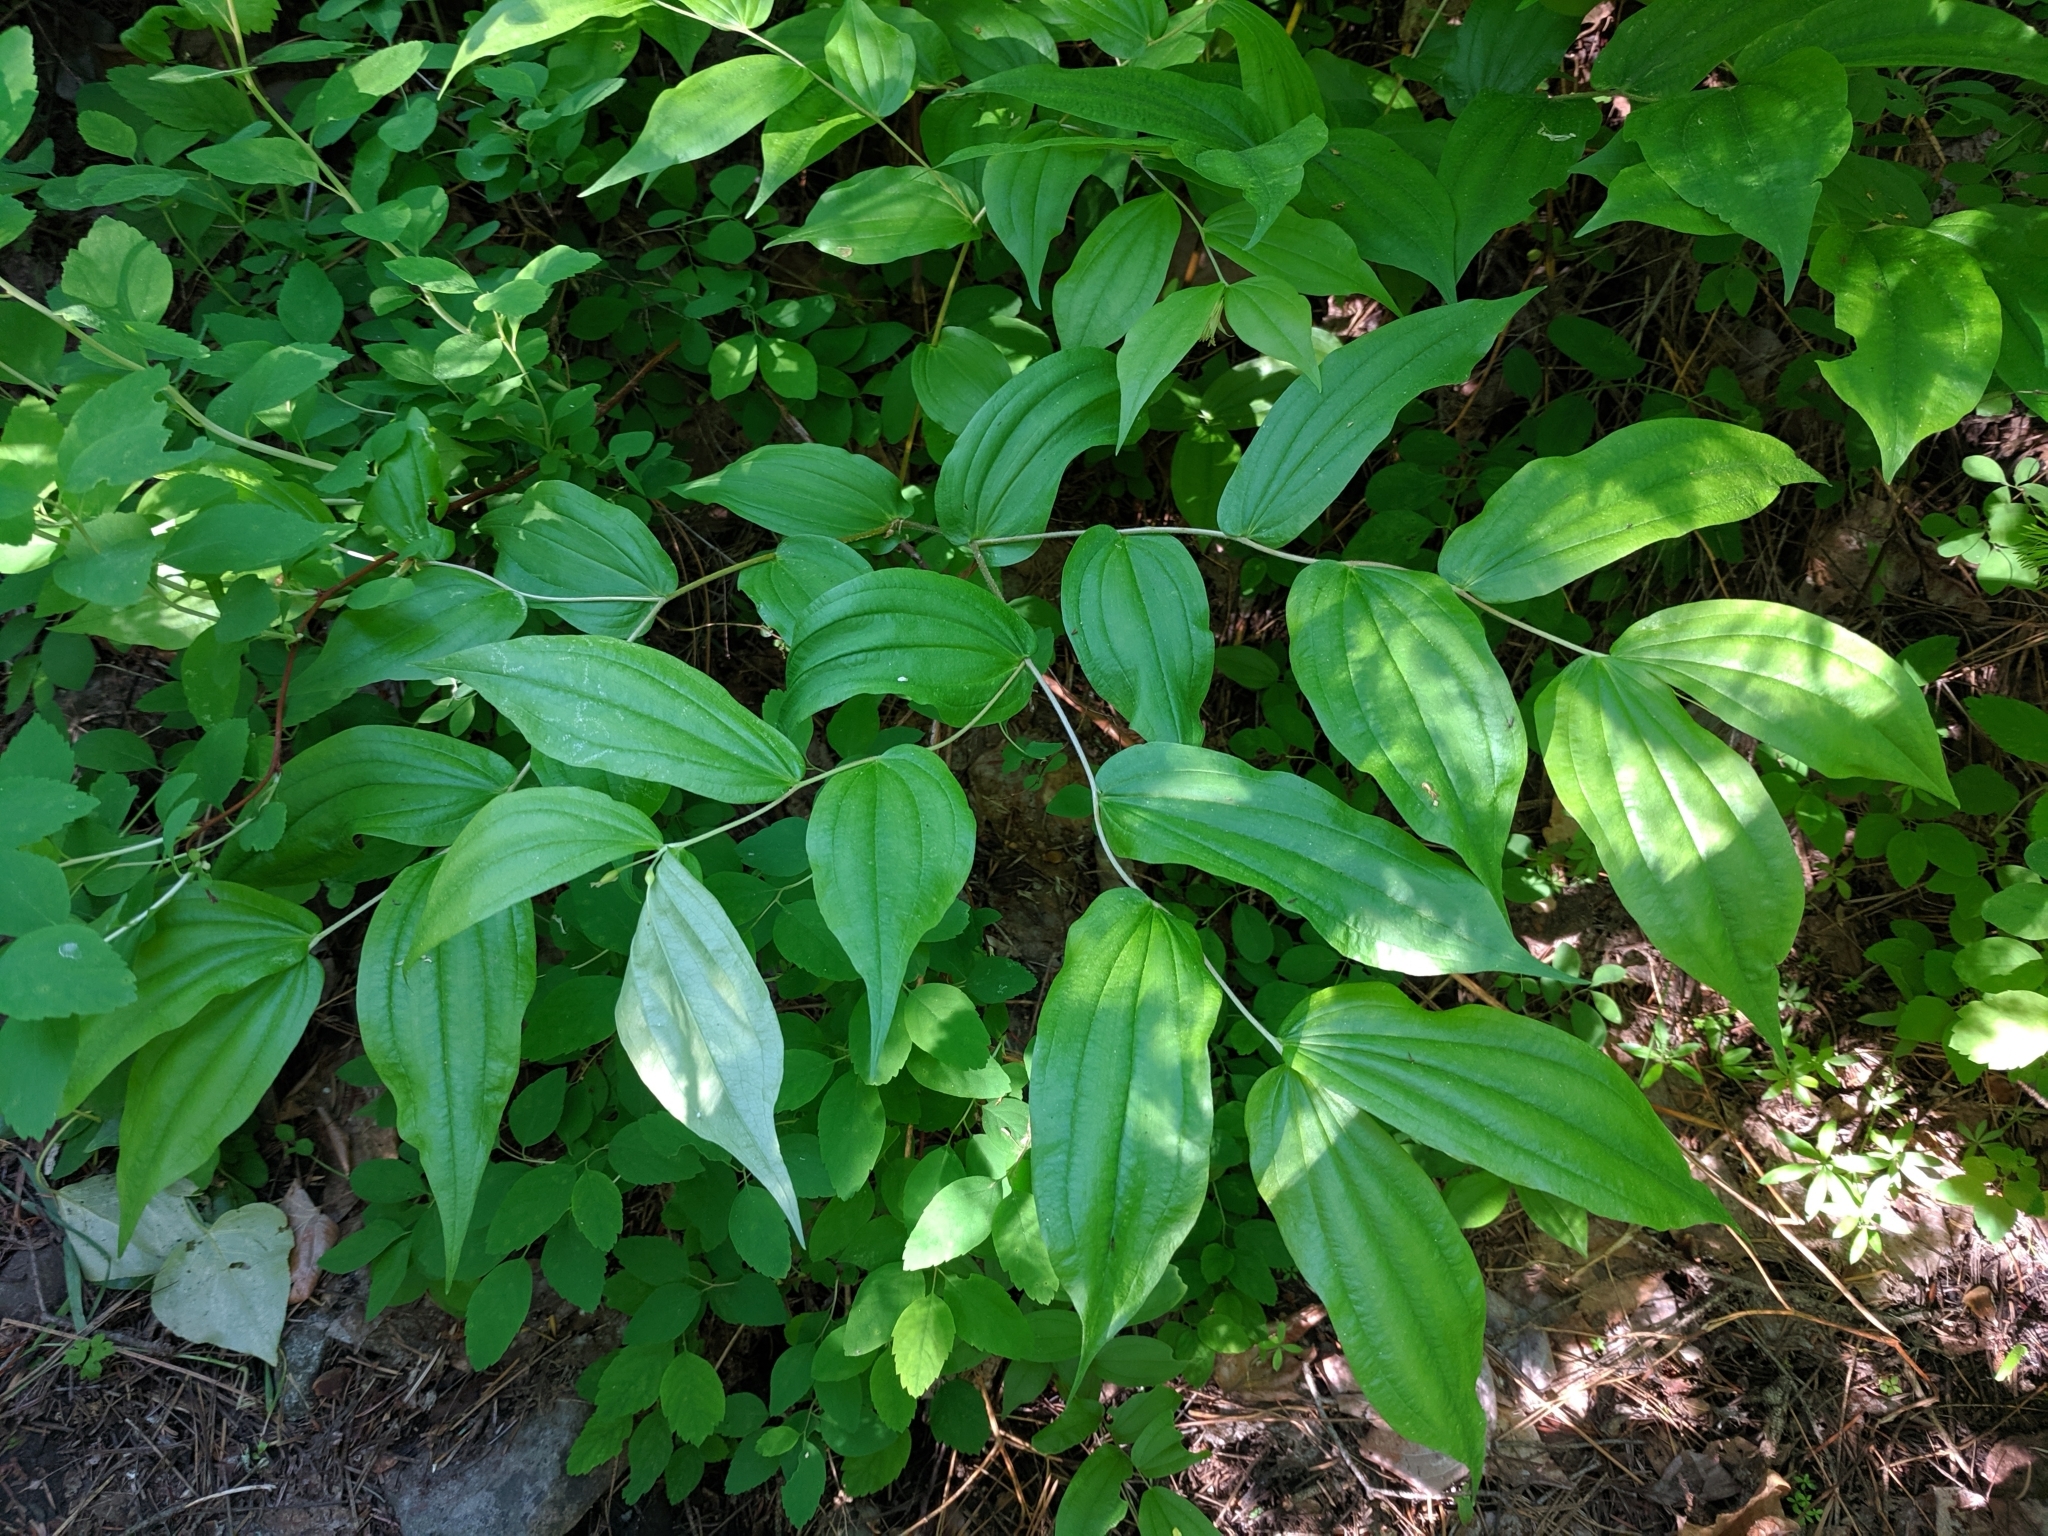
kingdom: Plantae
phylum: Tracheophyta
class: Liliopsida
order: Liliales
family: Liliaceae
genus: Prosartes
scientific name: Prosartes hookeri
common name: Fairy-bells
